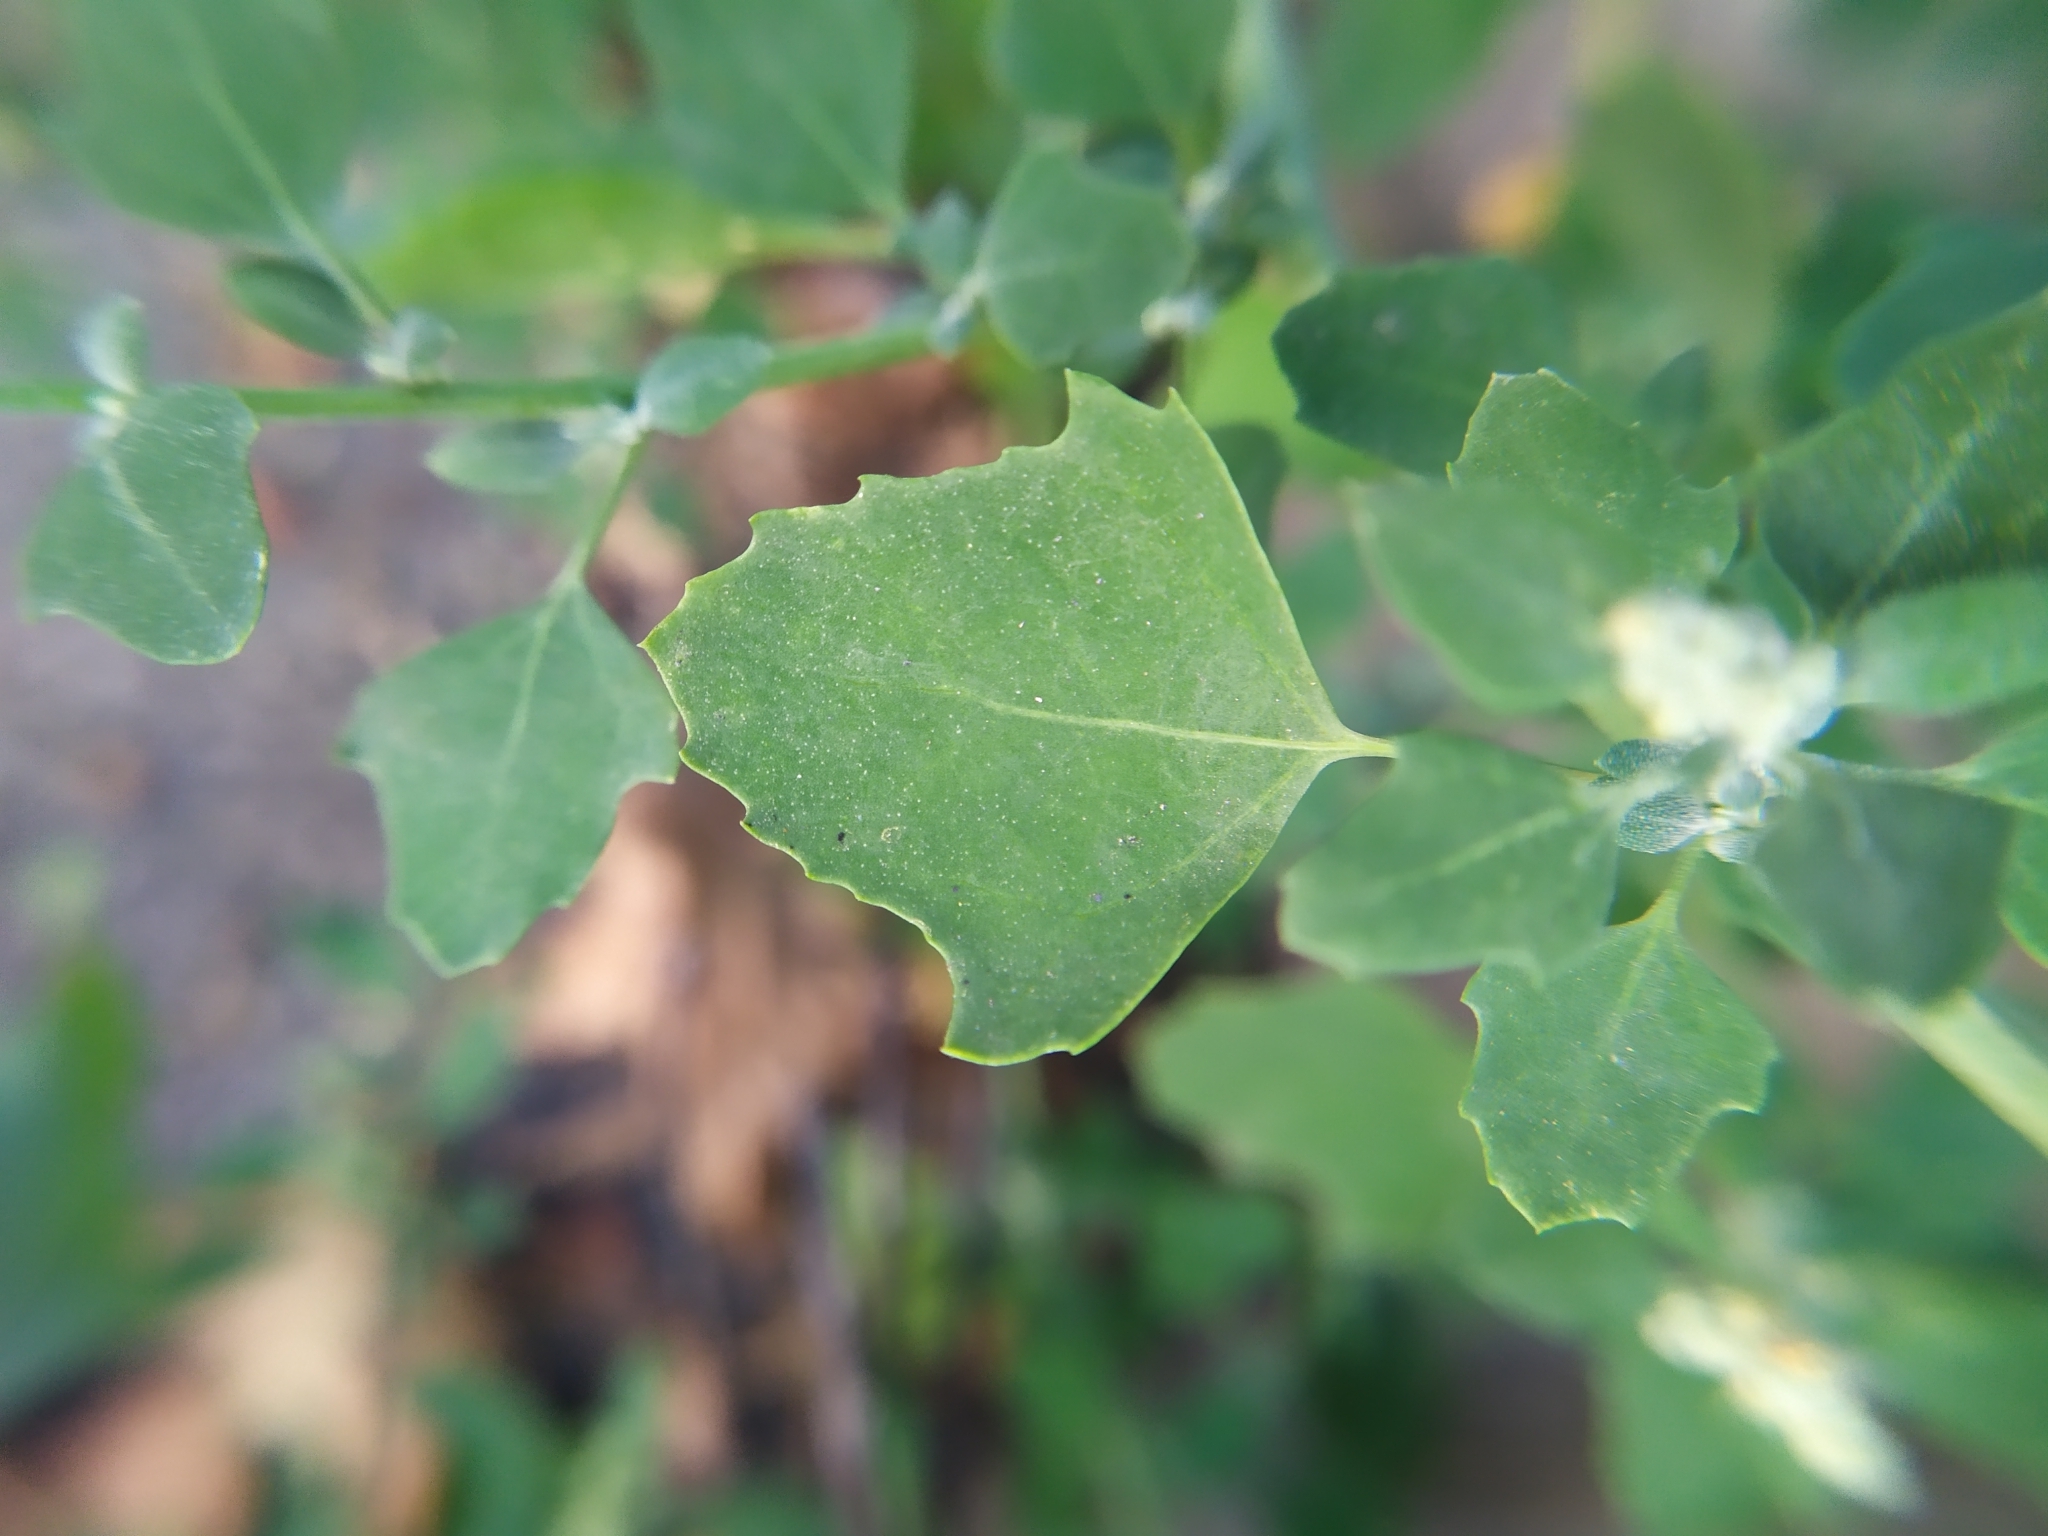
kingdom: Plantae
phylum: Tracheophyta
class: Magnoliopsida
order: Caryophyllales
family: Amaranthaceae
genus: Chenopodium
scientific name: Chenopodium opulifolium
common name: Grey goosefoot
